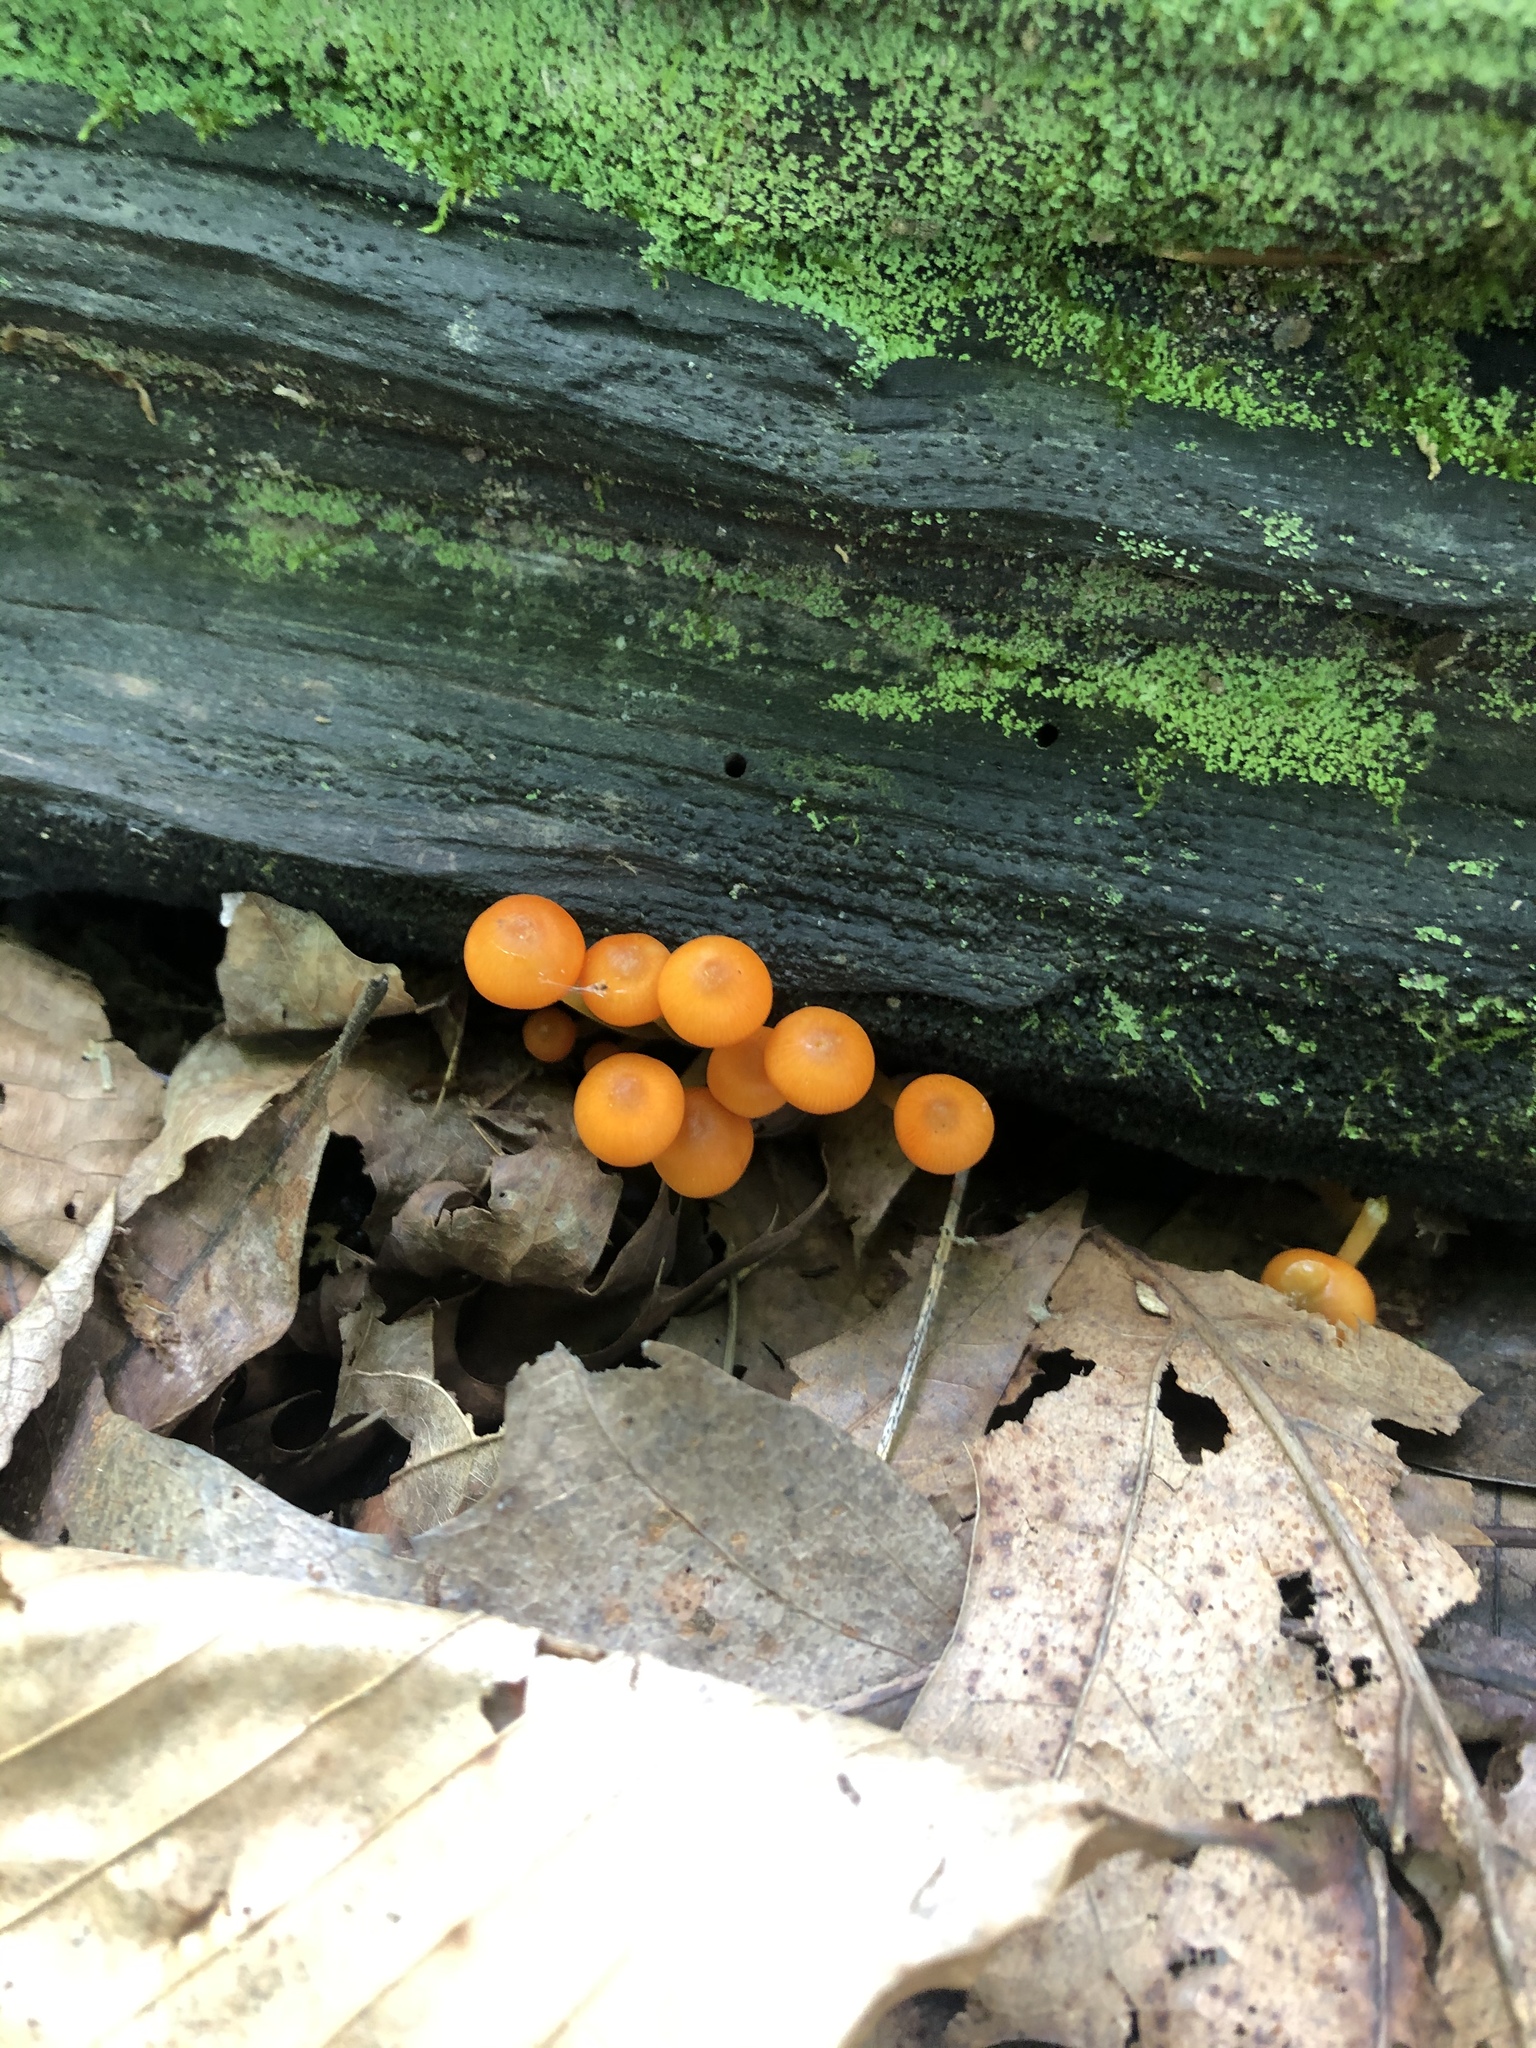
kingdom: Fungi
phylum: Basidiomycota
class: Agaricomycetes
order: Agaricales
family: Mycenaceae
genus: Mycena
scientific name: Mycena leaiana
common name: Orange mycena
